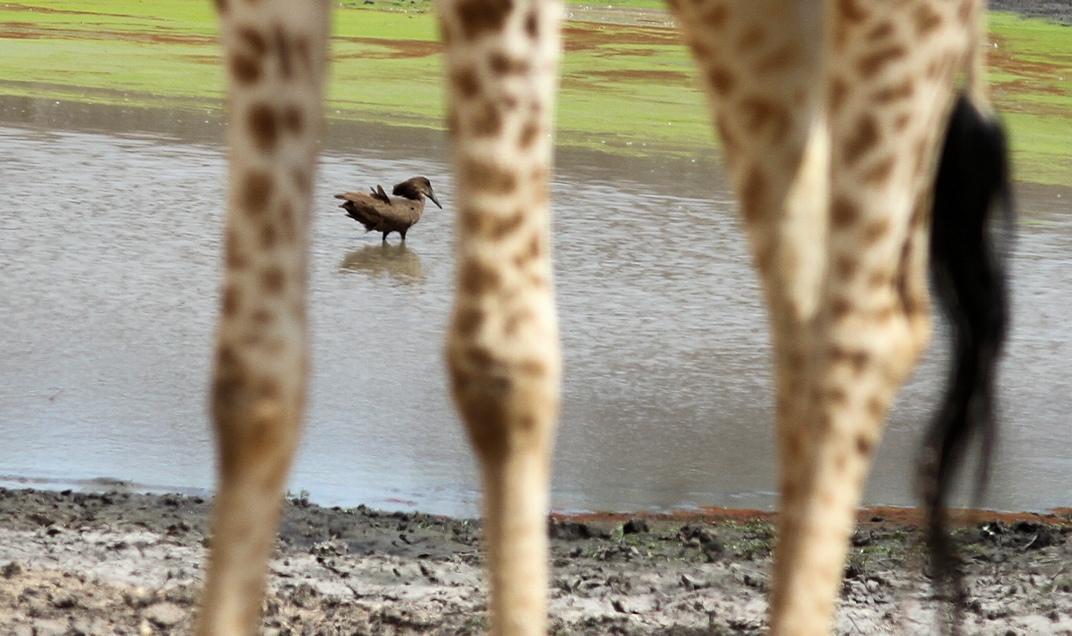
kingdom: Animalia
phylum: Chordata
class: Aves
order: Pelecaniformes
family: Scopidae
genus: Scopus
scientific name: Scopus umbretta
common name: Hamerkop
